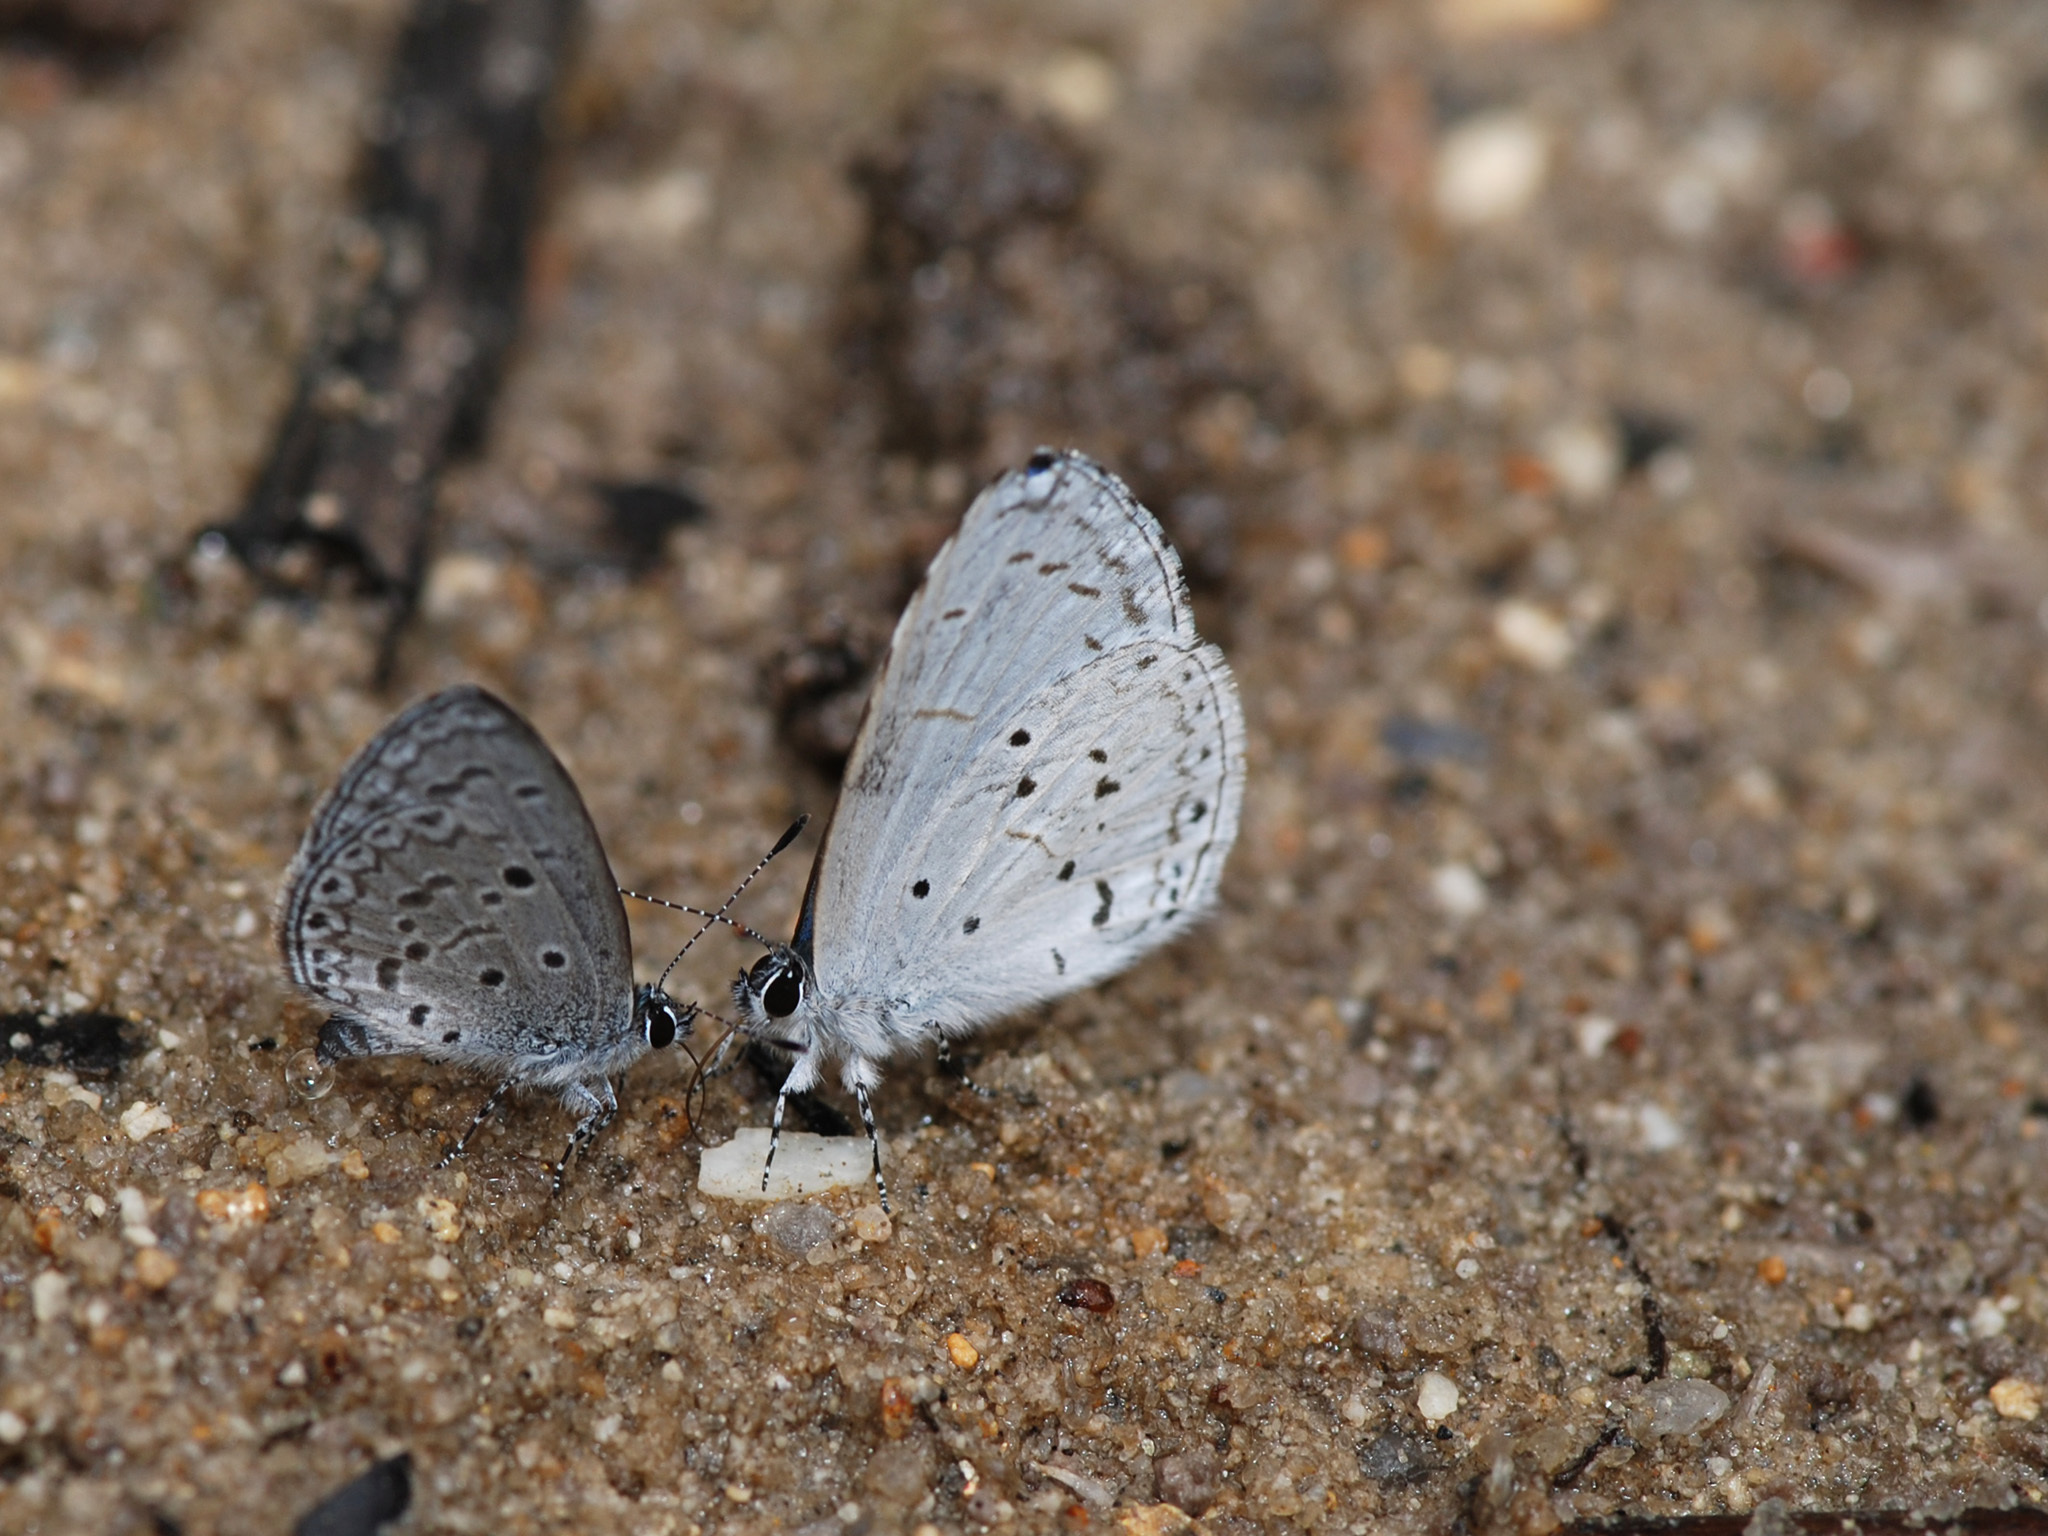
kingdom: Animalia
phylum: Arthropoda
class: Insecta
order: Lepidoptera
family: Lycaenidae
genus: Udara
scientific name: Udara dilectus
